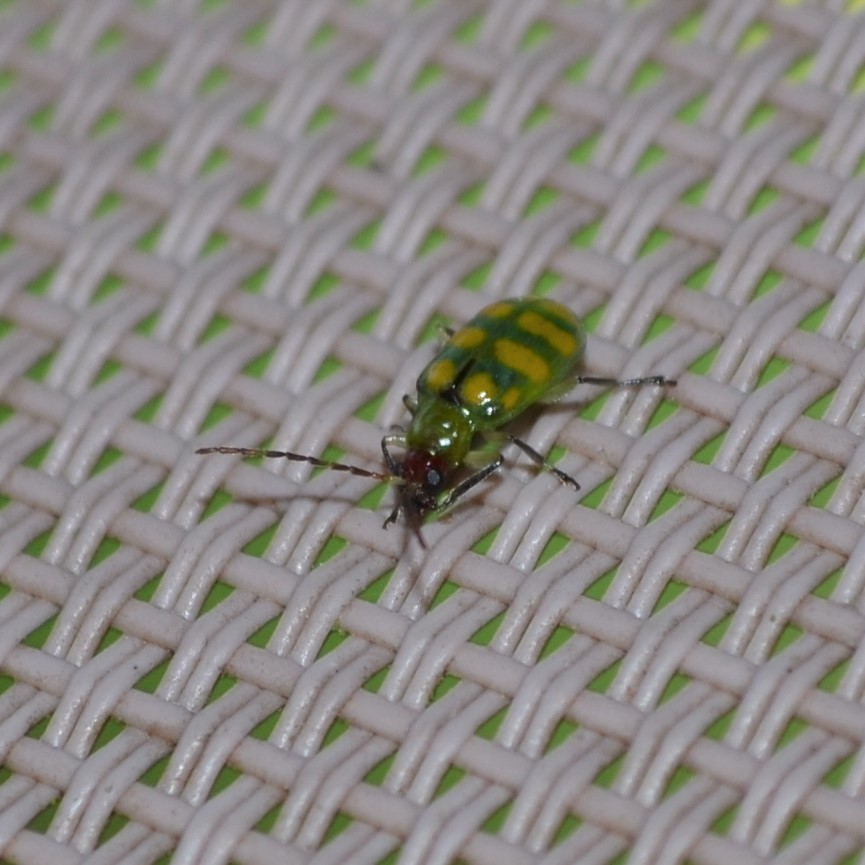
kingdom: Animalia
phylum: Arthropoda
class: Insecta
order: Coleoptera
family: Chrysomelidae
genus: Diabrotica
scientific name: Diabrotica balteata
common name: Leaf beetle
